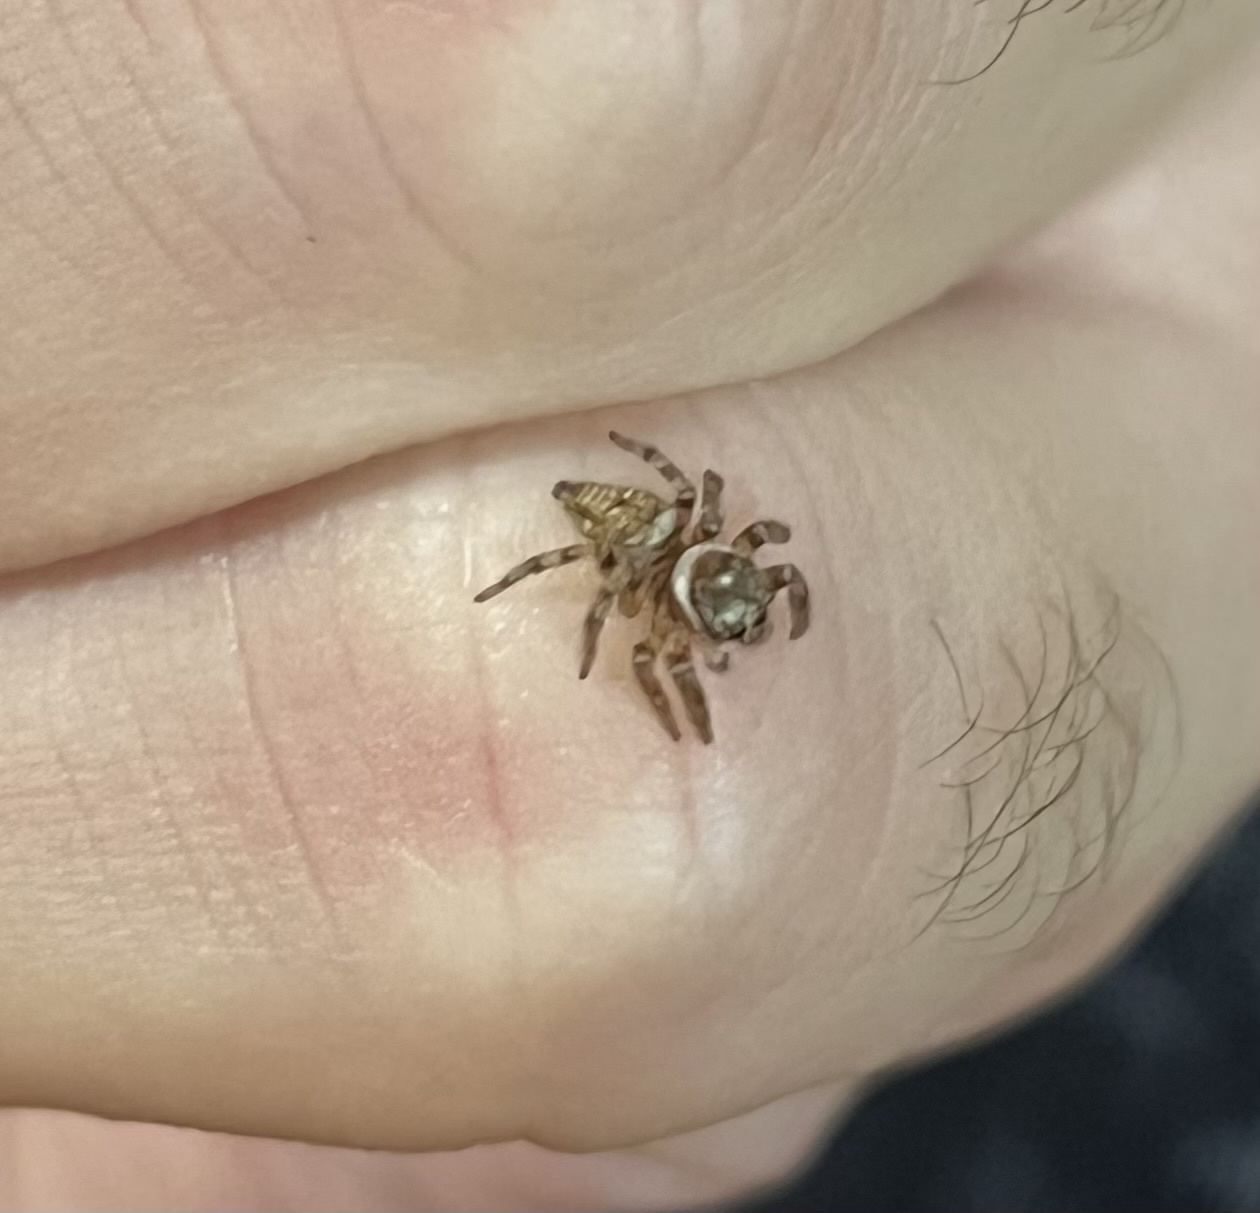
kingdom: Animalia
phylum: Arthropoda
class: Arachnida
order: Araneae
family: Salticidae
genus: Evarcha
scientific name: Evarcha jucunda
